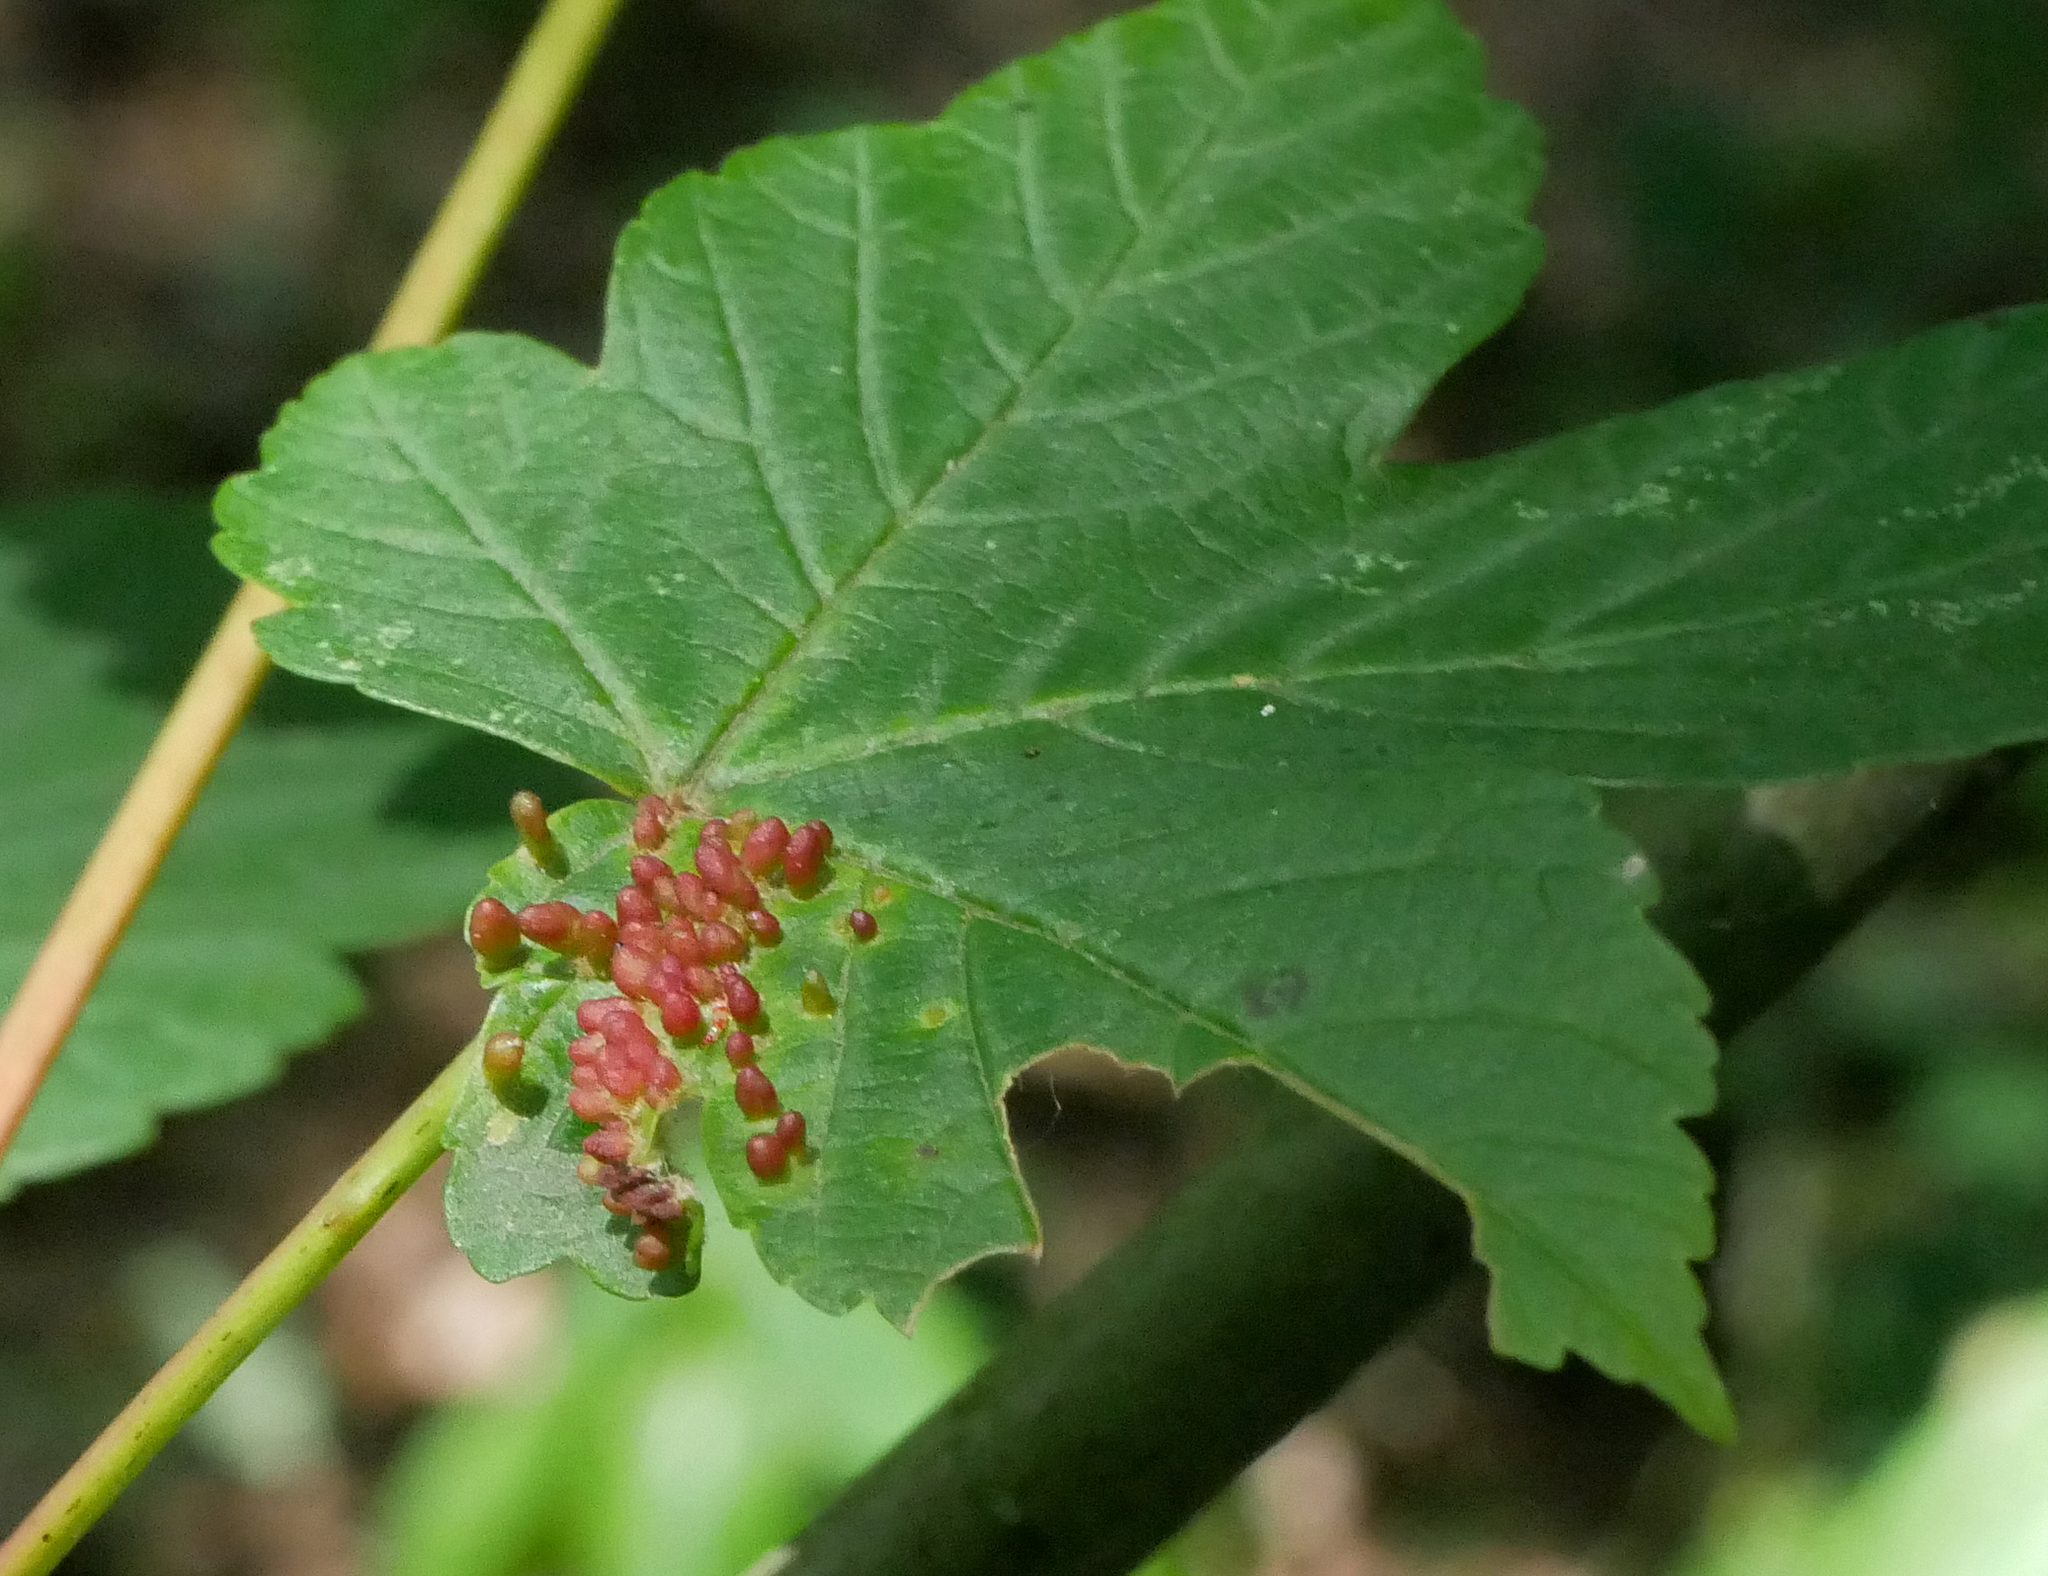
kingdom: Animalia
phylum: Arthropoda
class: Arachnida
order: Trombidiformes
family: Eriophyidae
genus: Aceria
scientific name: Aceria cephaloneus
